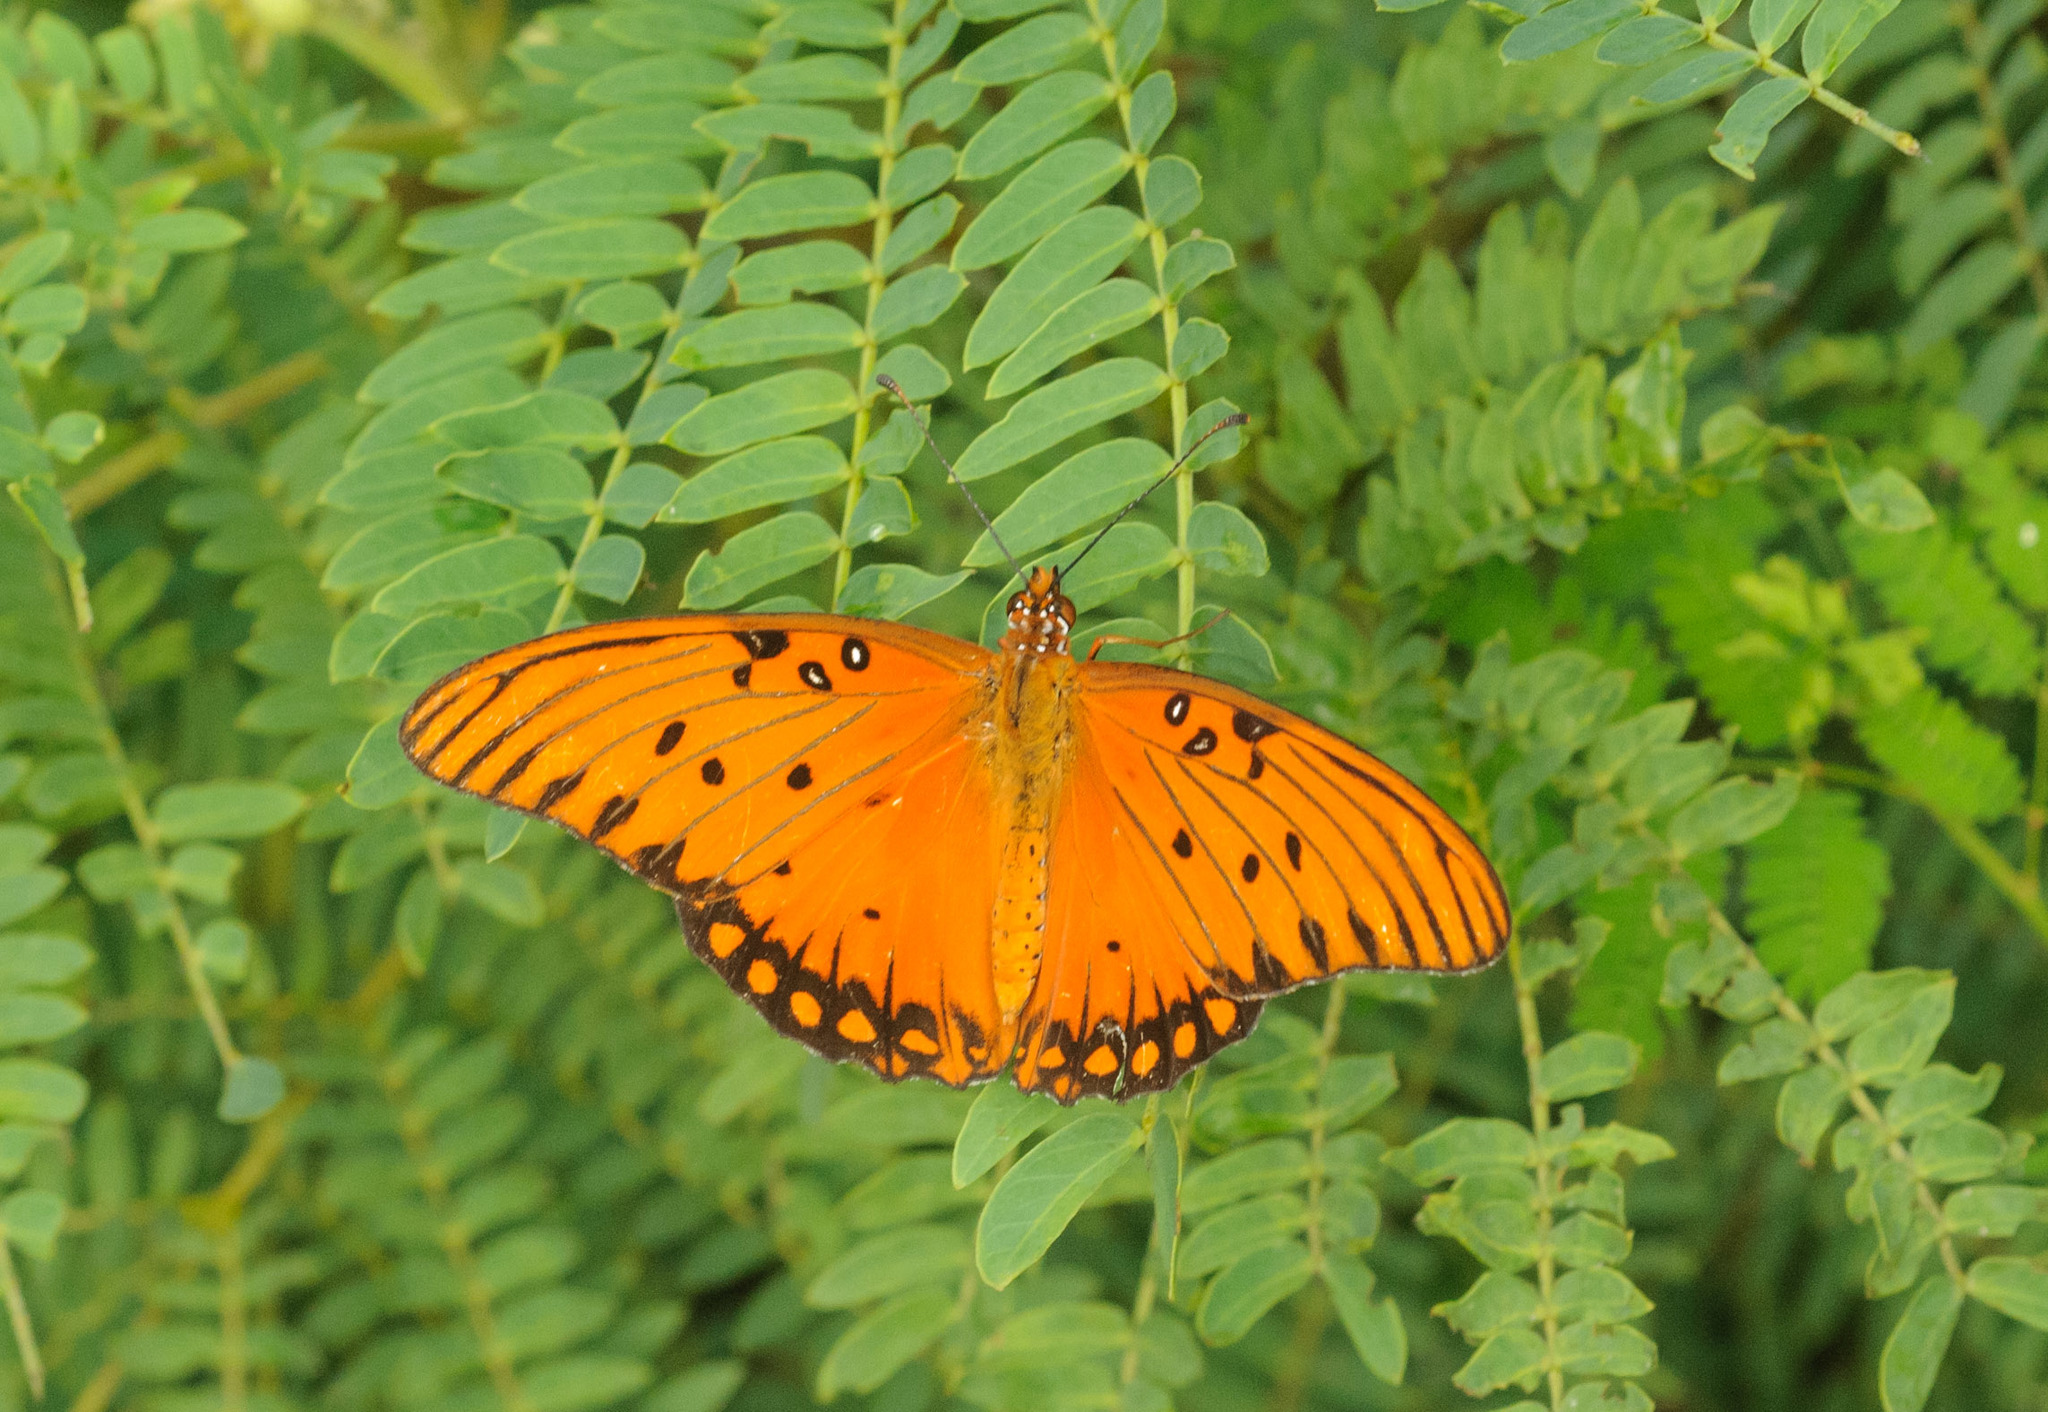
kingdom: Animalia
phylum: Arthropoda
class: Insecta
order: Lepidoptera
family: Nymphalidae
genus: Dione
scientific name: Dione vanillae
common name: Gulf fritillary
